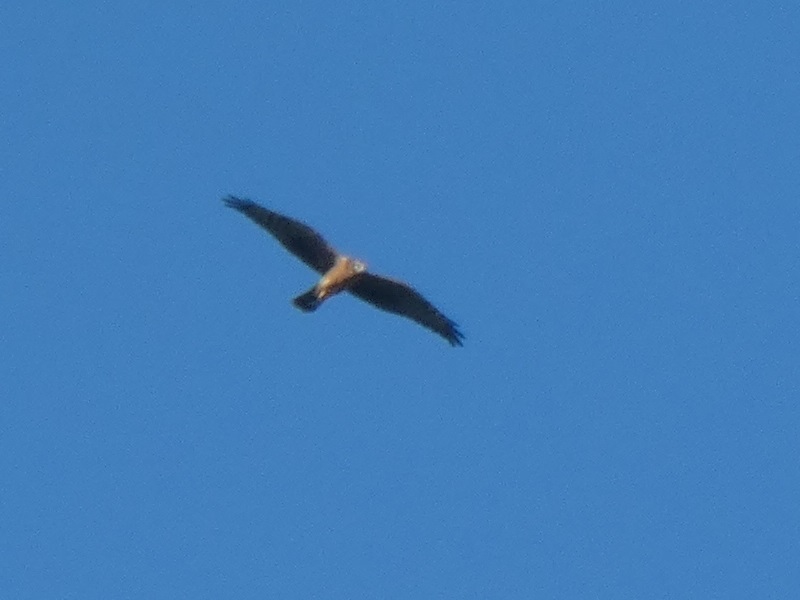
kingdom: Animalia
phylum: Chordata
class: Aves
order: Accipitriformes
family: Accipitridae
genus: Circus
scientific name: Circus pygargus
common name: Montagu's harrier
